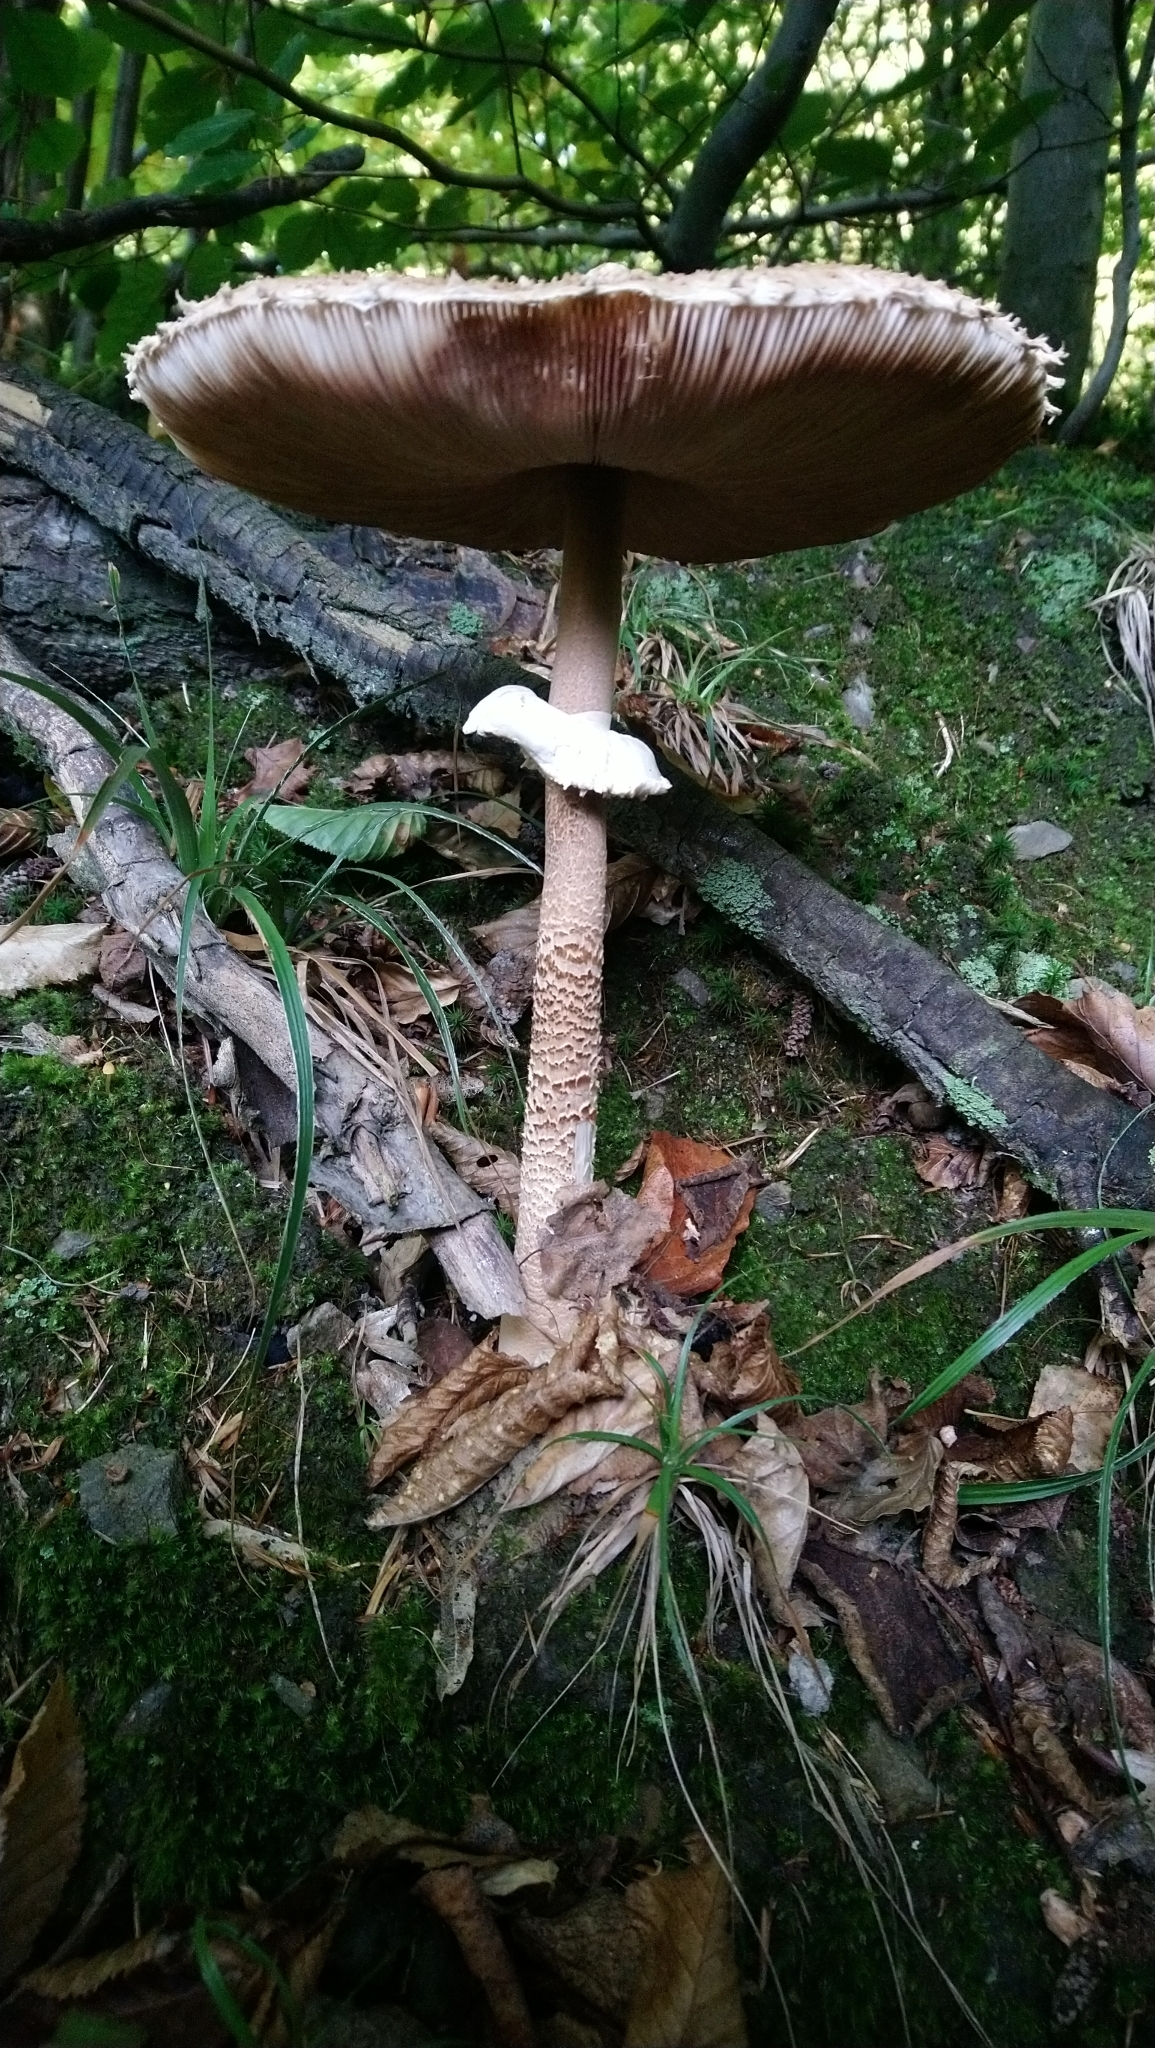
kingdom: Fungi
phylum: Basidiomycota
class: Agaricomycetes
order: Agaricales
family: Agaricaceae
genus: Macrolepiota
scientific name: Macrolepiota procera
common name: Parasol
